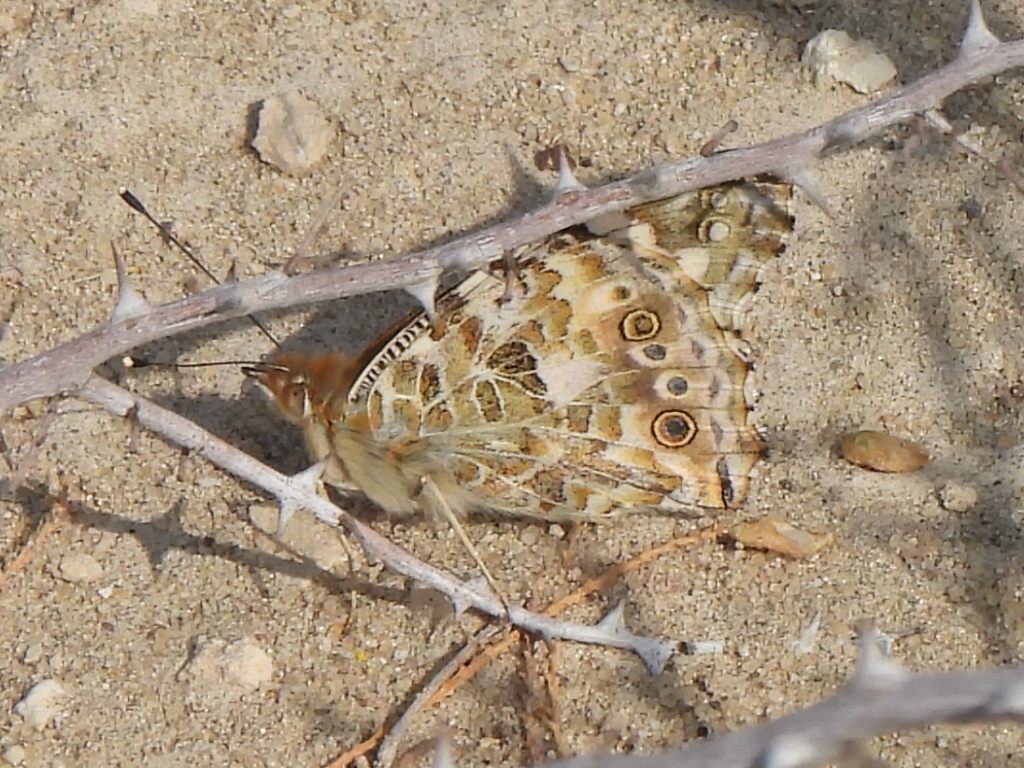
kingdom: Animalia
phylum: Arthropoda
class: Insecta
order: Lepidoptera
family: Nymphalidae
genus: Vanessa
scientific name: Vanessa cardui
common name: Painted lady
